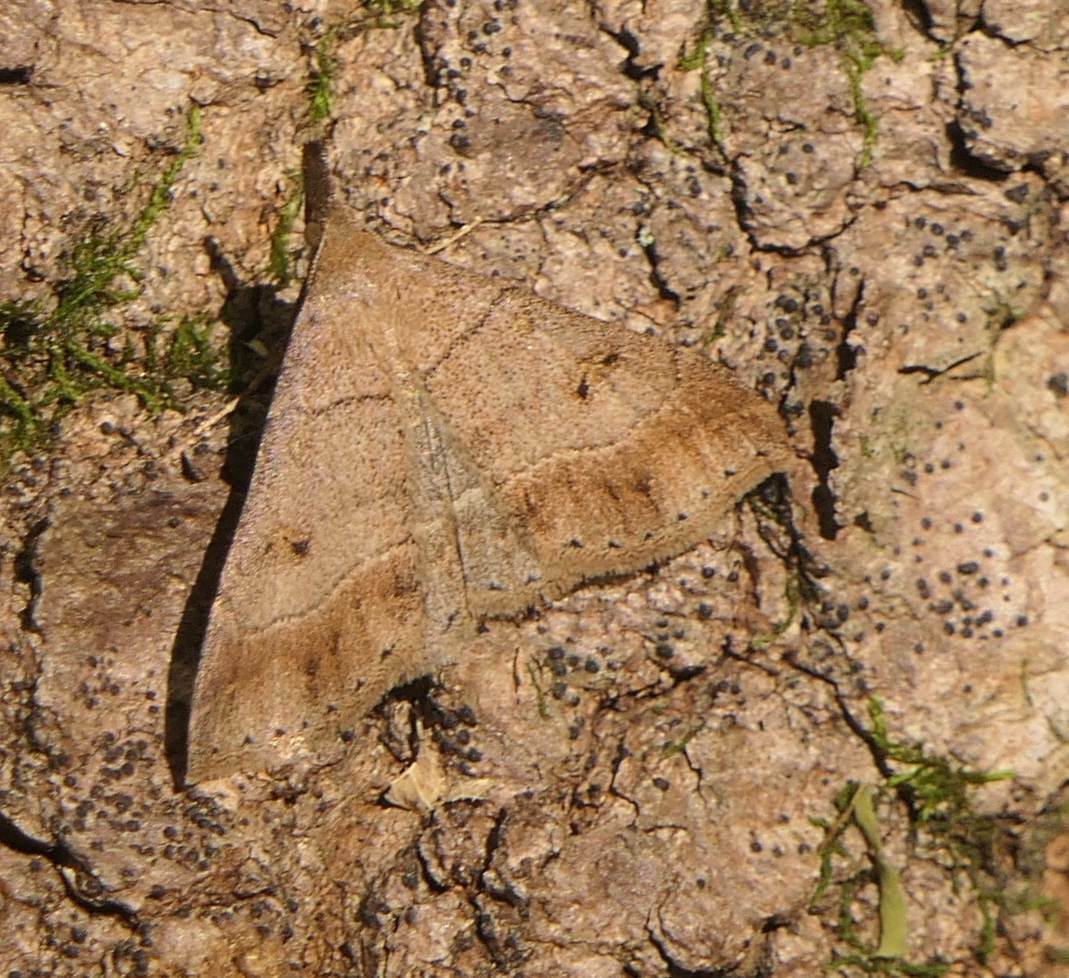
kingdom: Animalia
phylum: Arthropoda
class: Insecta
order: Lepidoptera
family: Erebidae
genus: Renia
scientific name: Renia flavipunctalis
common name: Yellow-spotted renia moth
